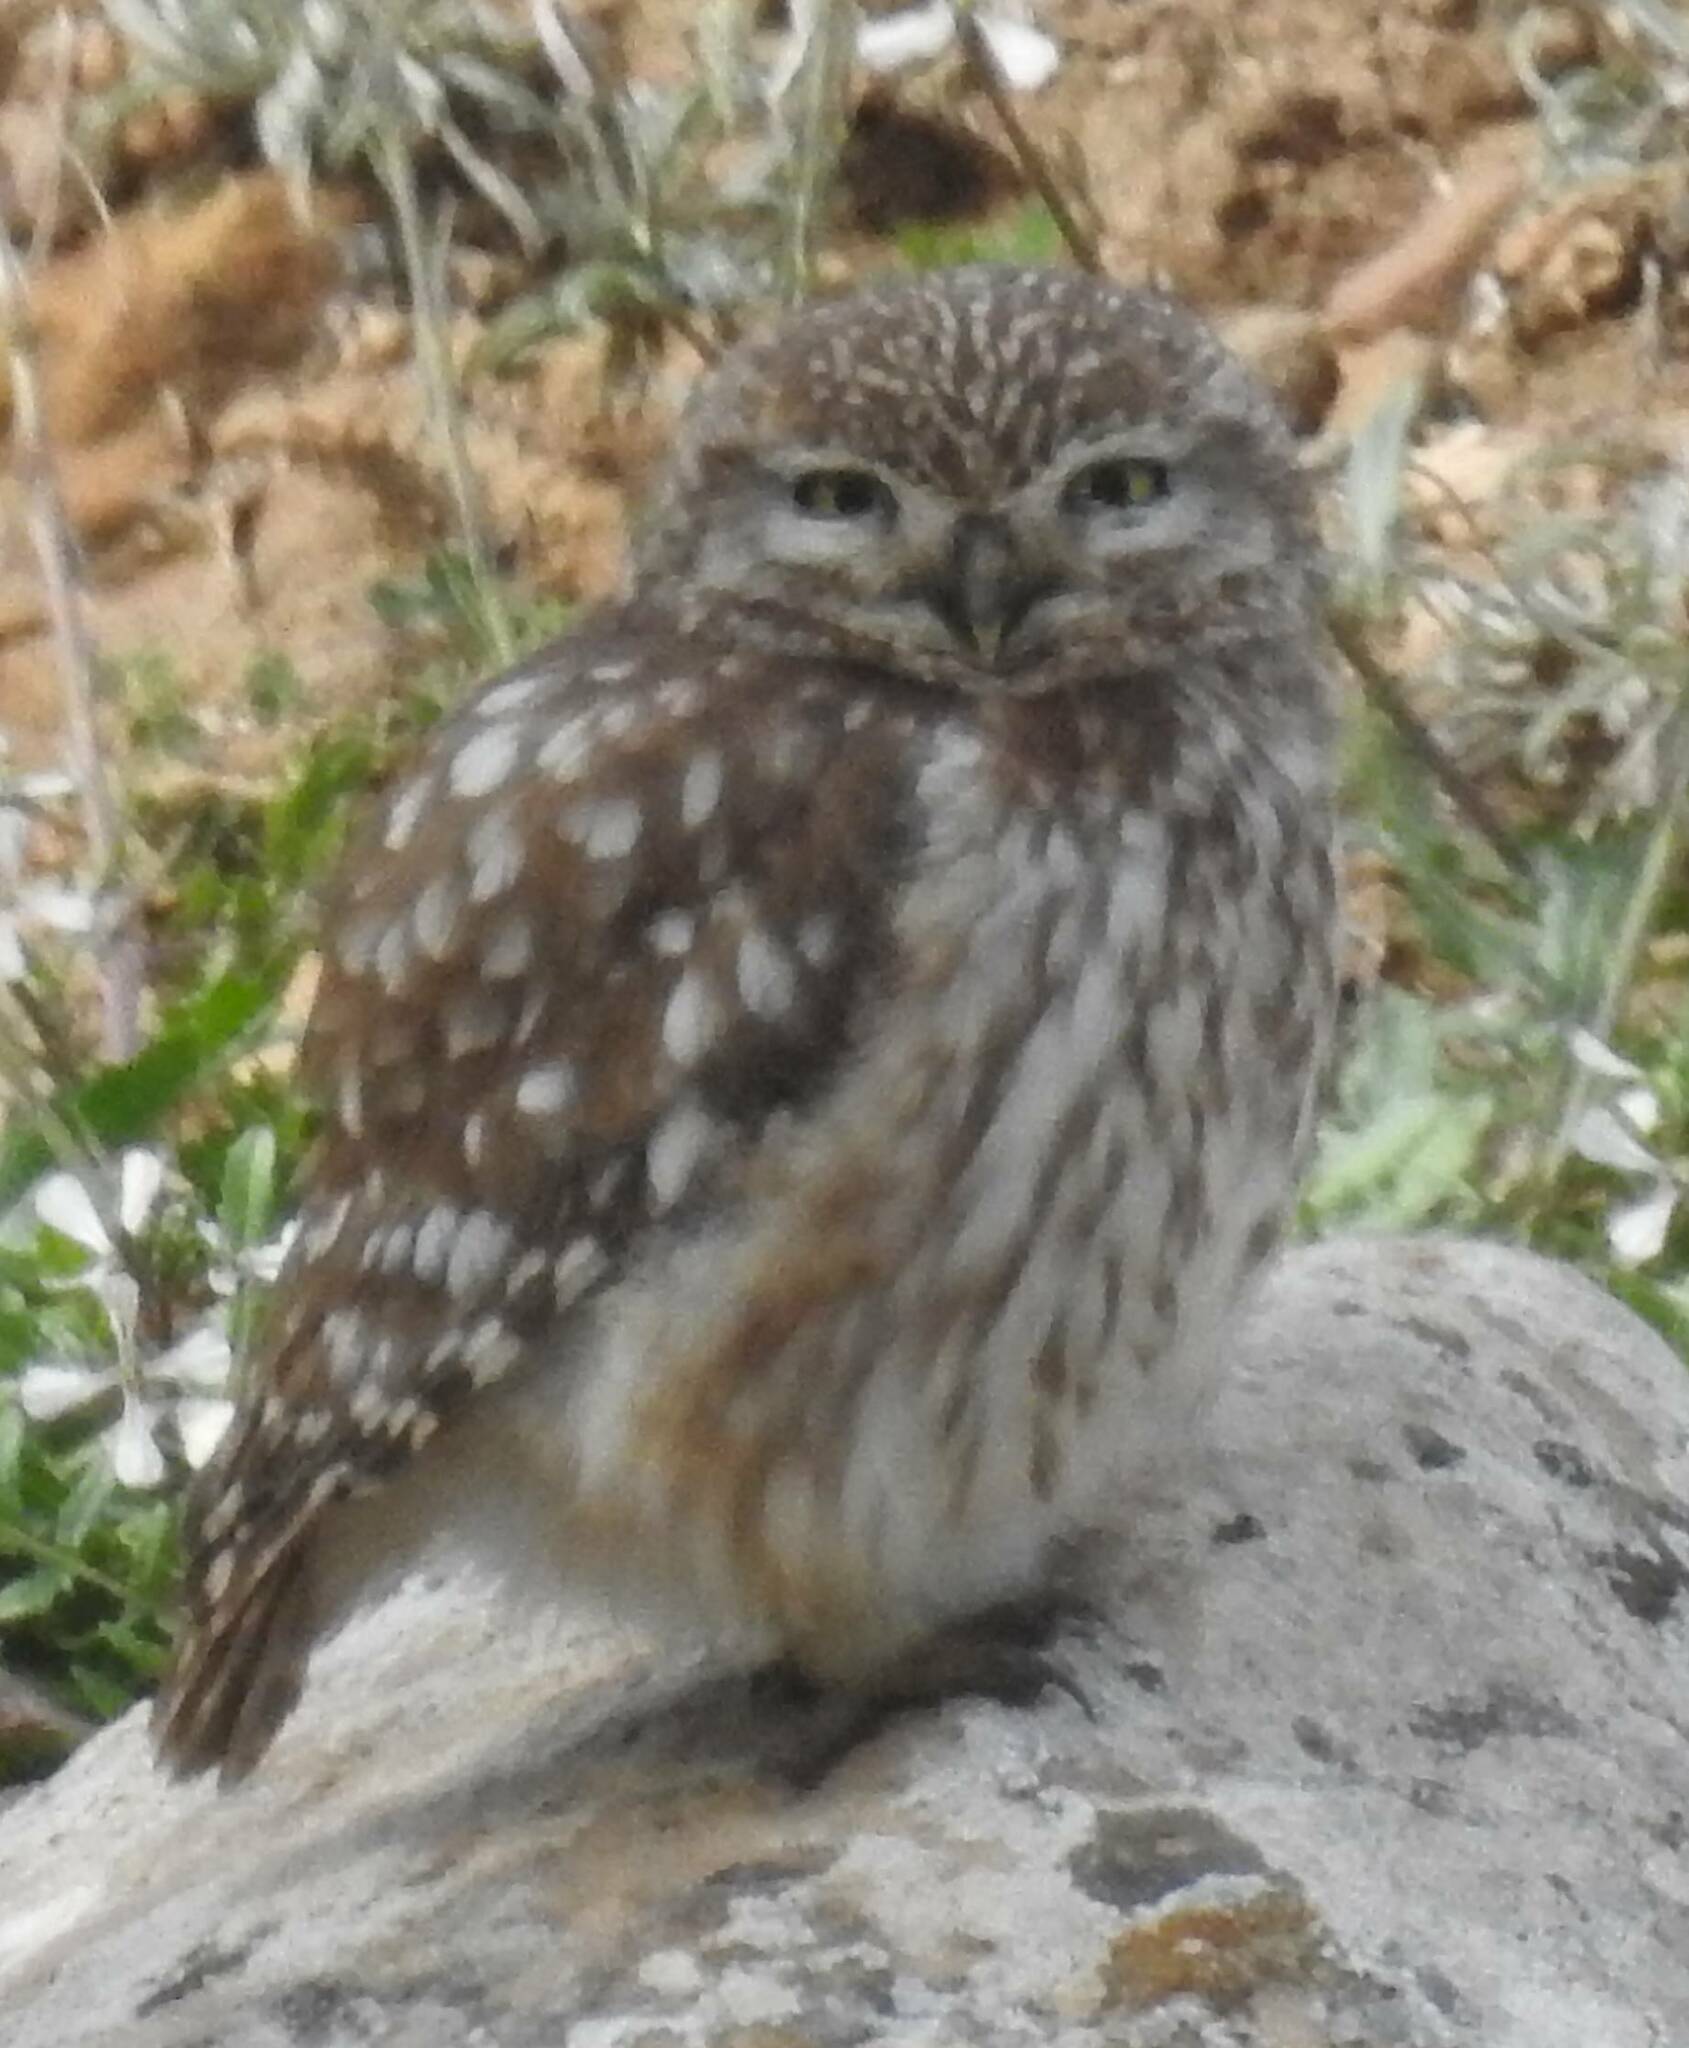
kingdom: Animalia
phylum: Chordata
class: Aves
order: Strigiformes
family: Strigidae
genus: Athene
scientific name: Athene noctua
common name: Little owl
